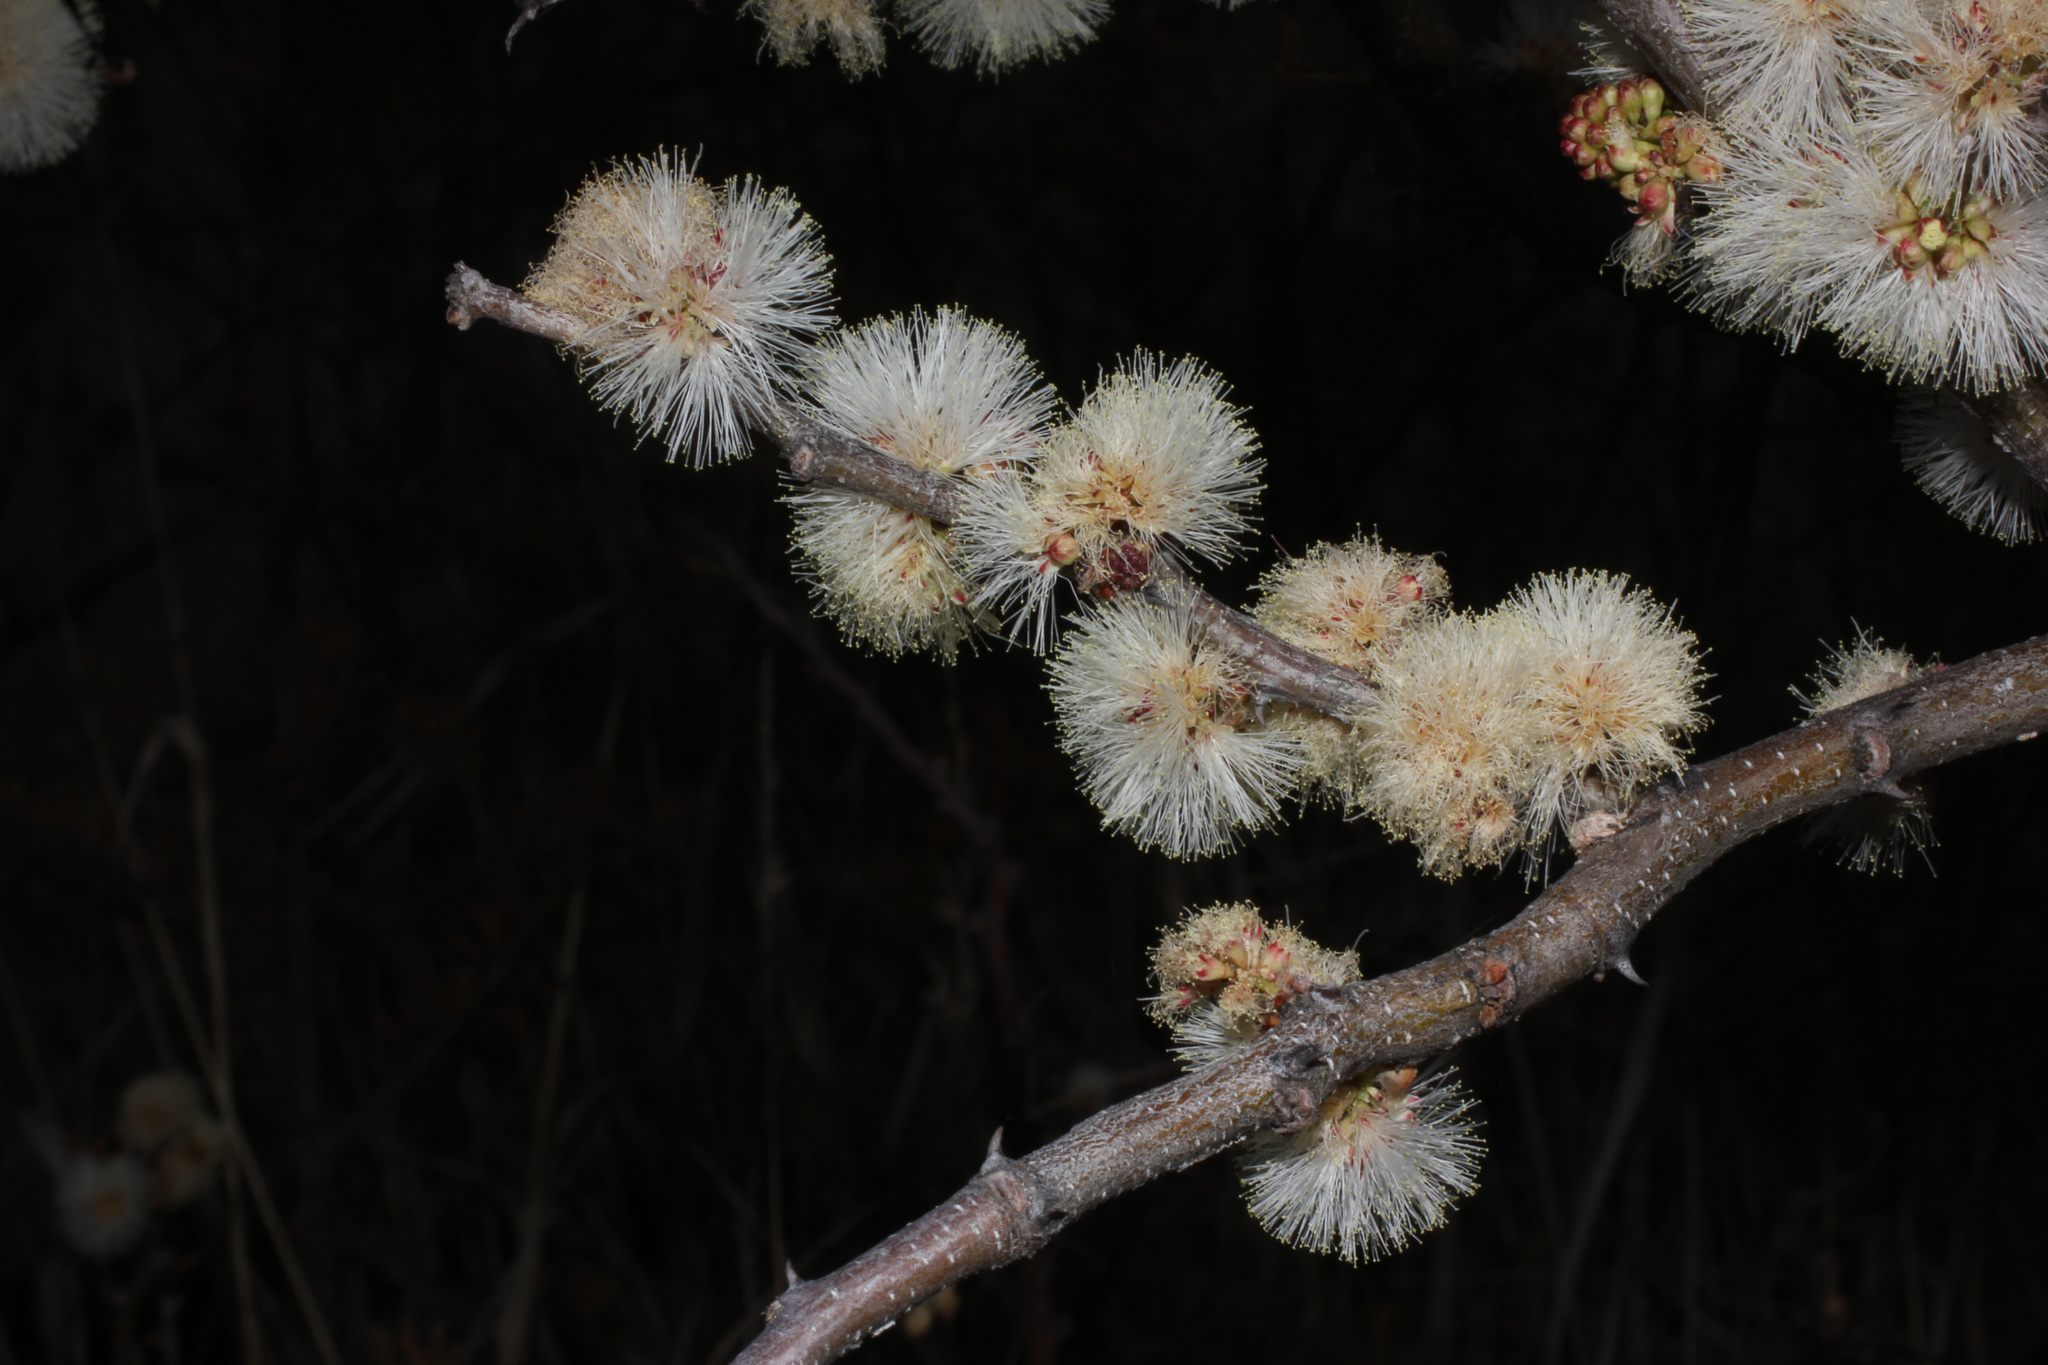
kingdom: Plantae
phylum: Tracheophyta
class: Magnoliopsida
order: Fabales
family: Fabaceae
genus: Senegalia
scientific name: Senegalia mellifera
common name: Hookthorn
